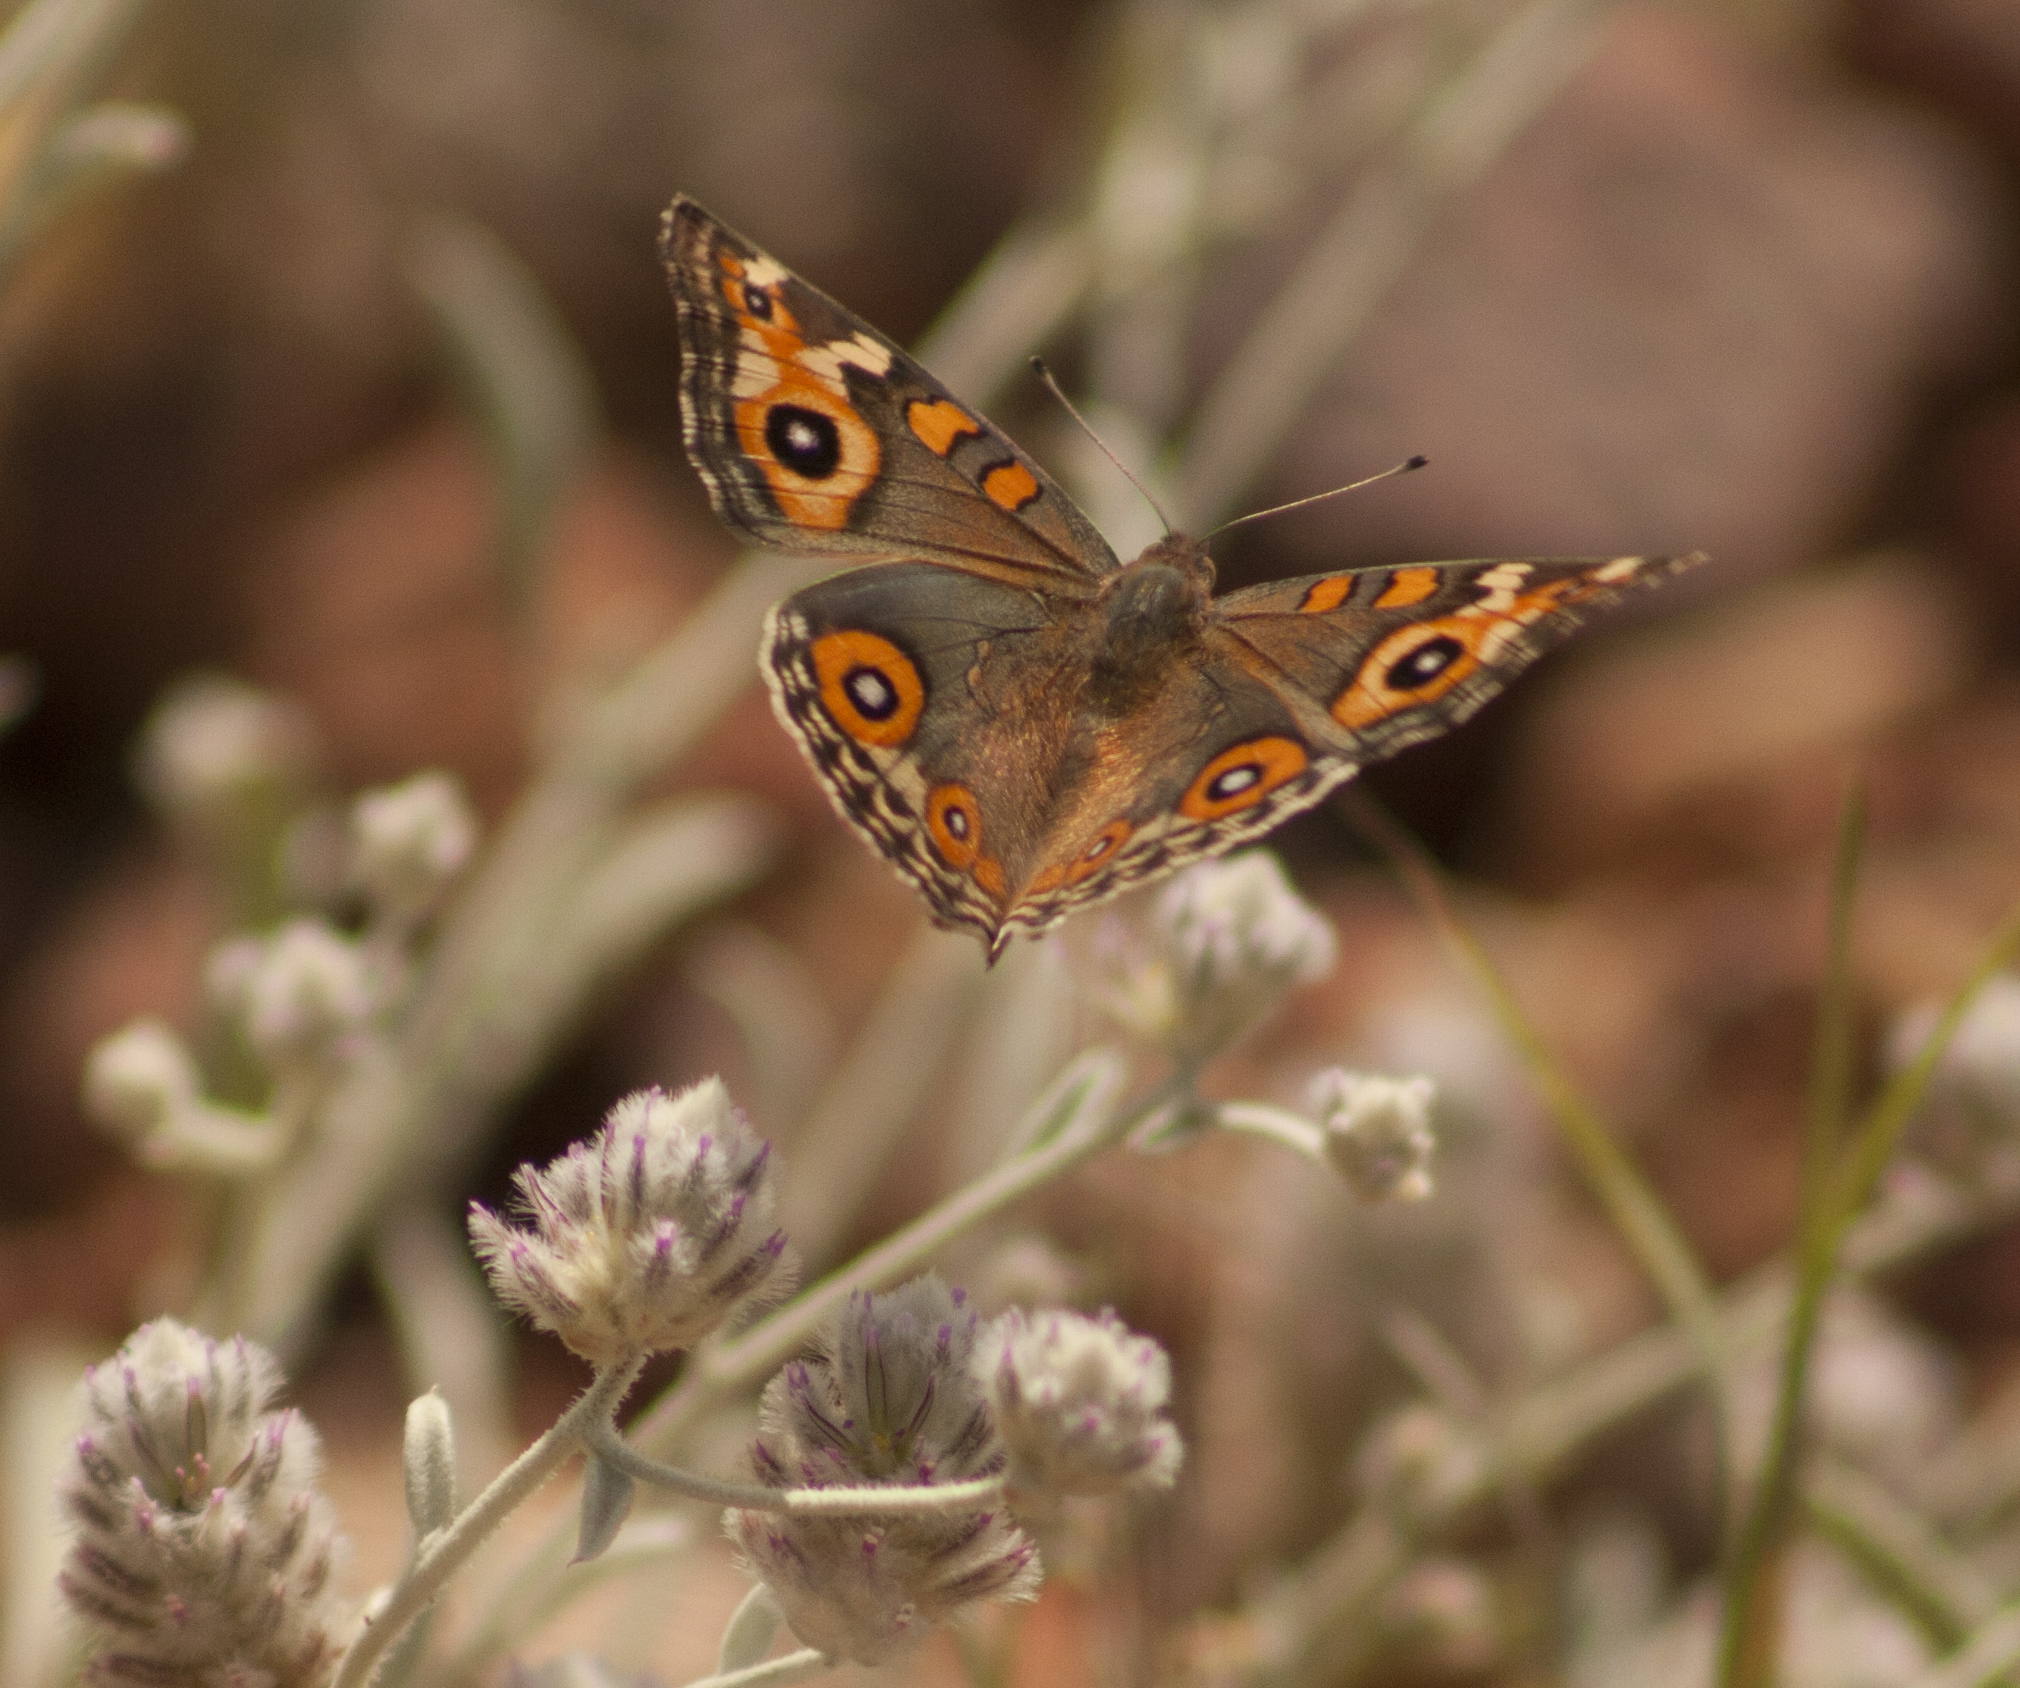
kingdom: Animalia
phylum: Arthropoda
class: Insecta
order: Lepidoptera
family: Nymphalidae
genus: Junonia
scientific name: Junonia villida
